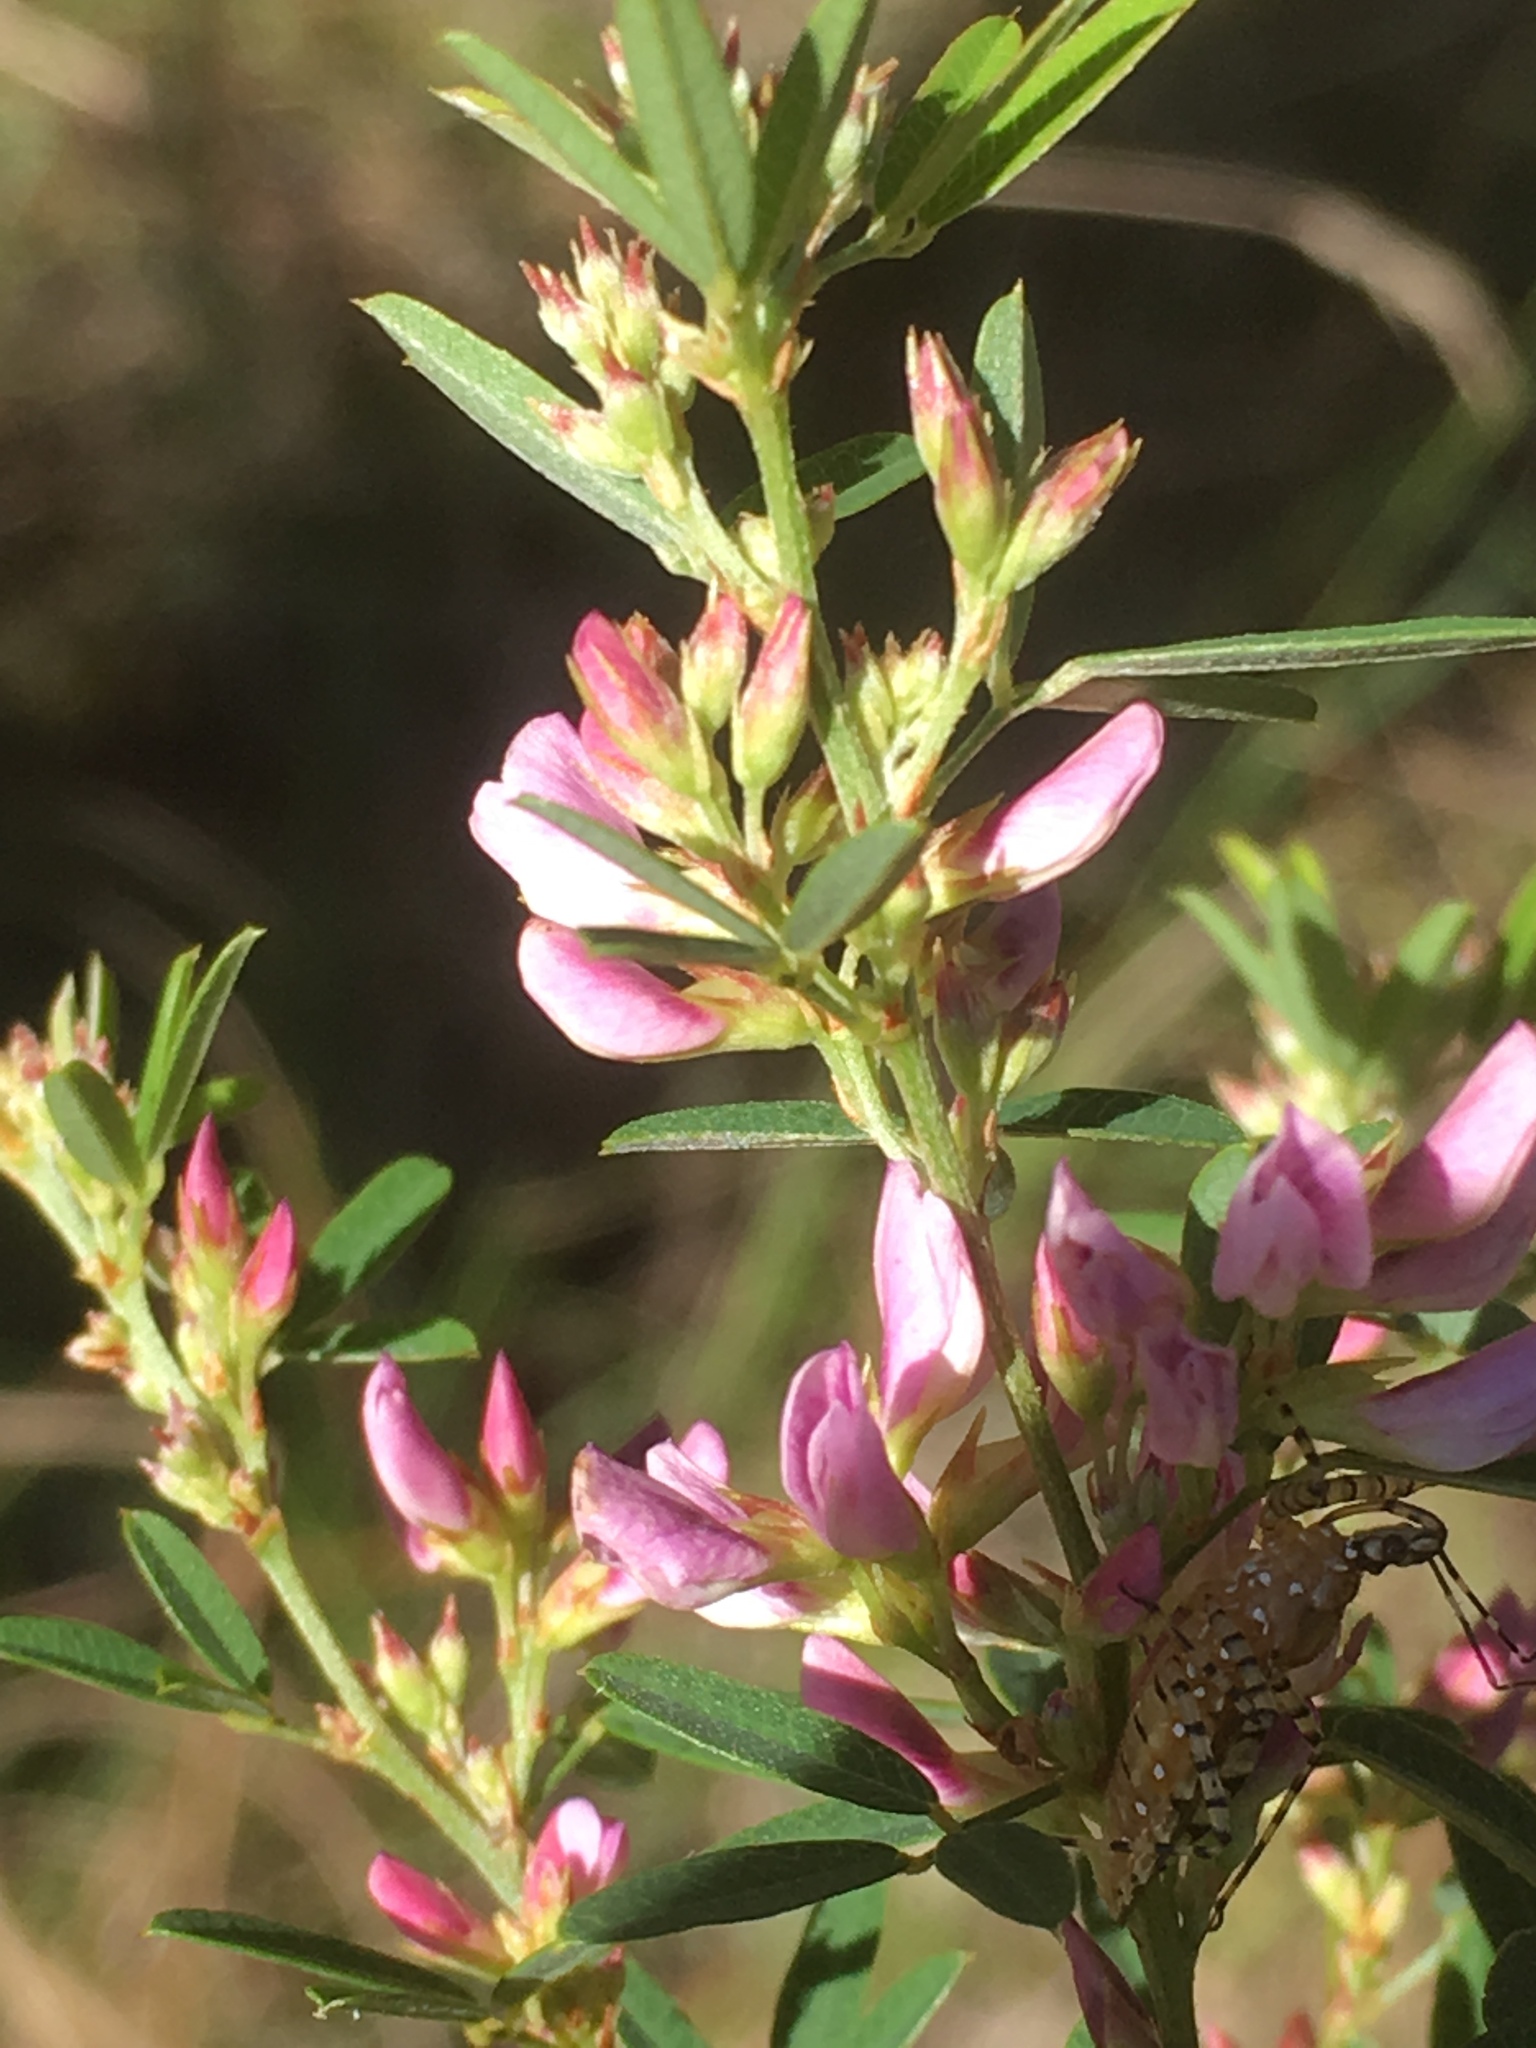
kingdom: Plantae
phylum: Tracheophyta
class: Magnoliopsida
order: Fabales
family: Fabaceae
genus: Lespedeza
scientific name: Lespedeza virginica
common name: Slender bush-clover
